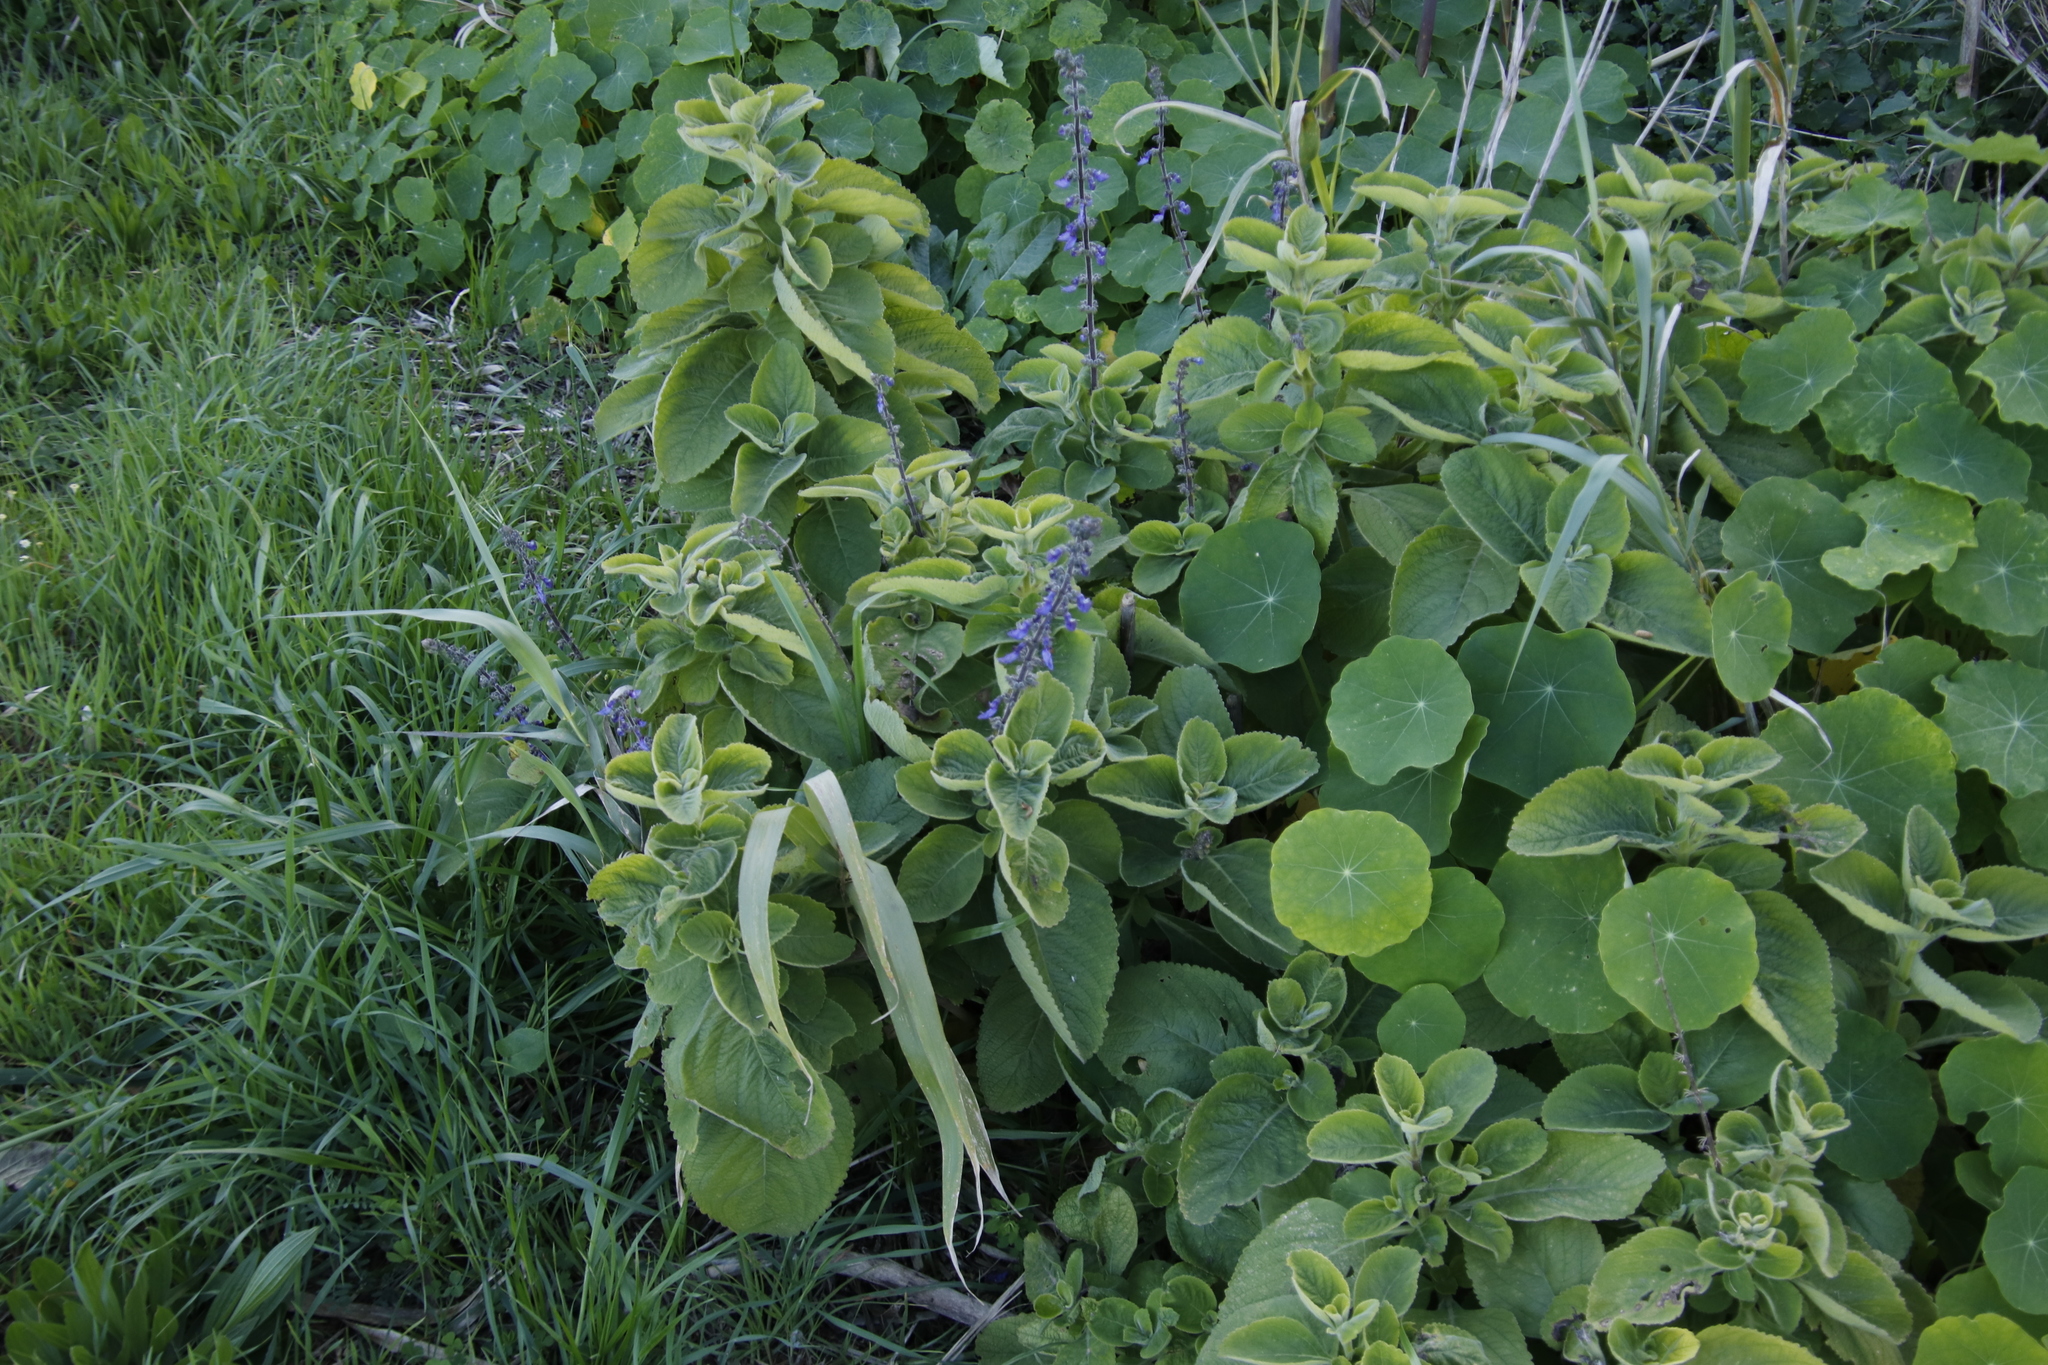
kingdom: Plantae
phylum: Tracheophyta
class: Magnoliopsida
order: Lamiales
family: Lamiaceae
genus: Coleus
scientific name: Coleus barbatus
